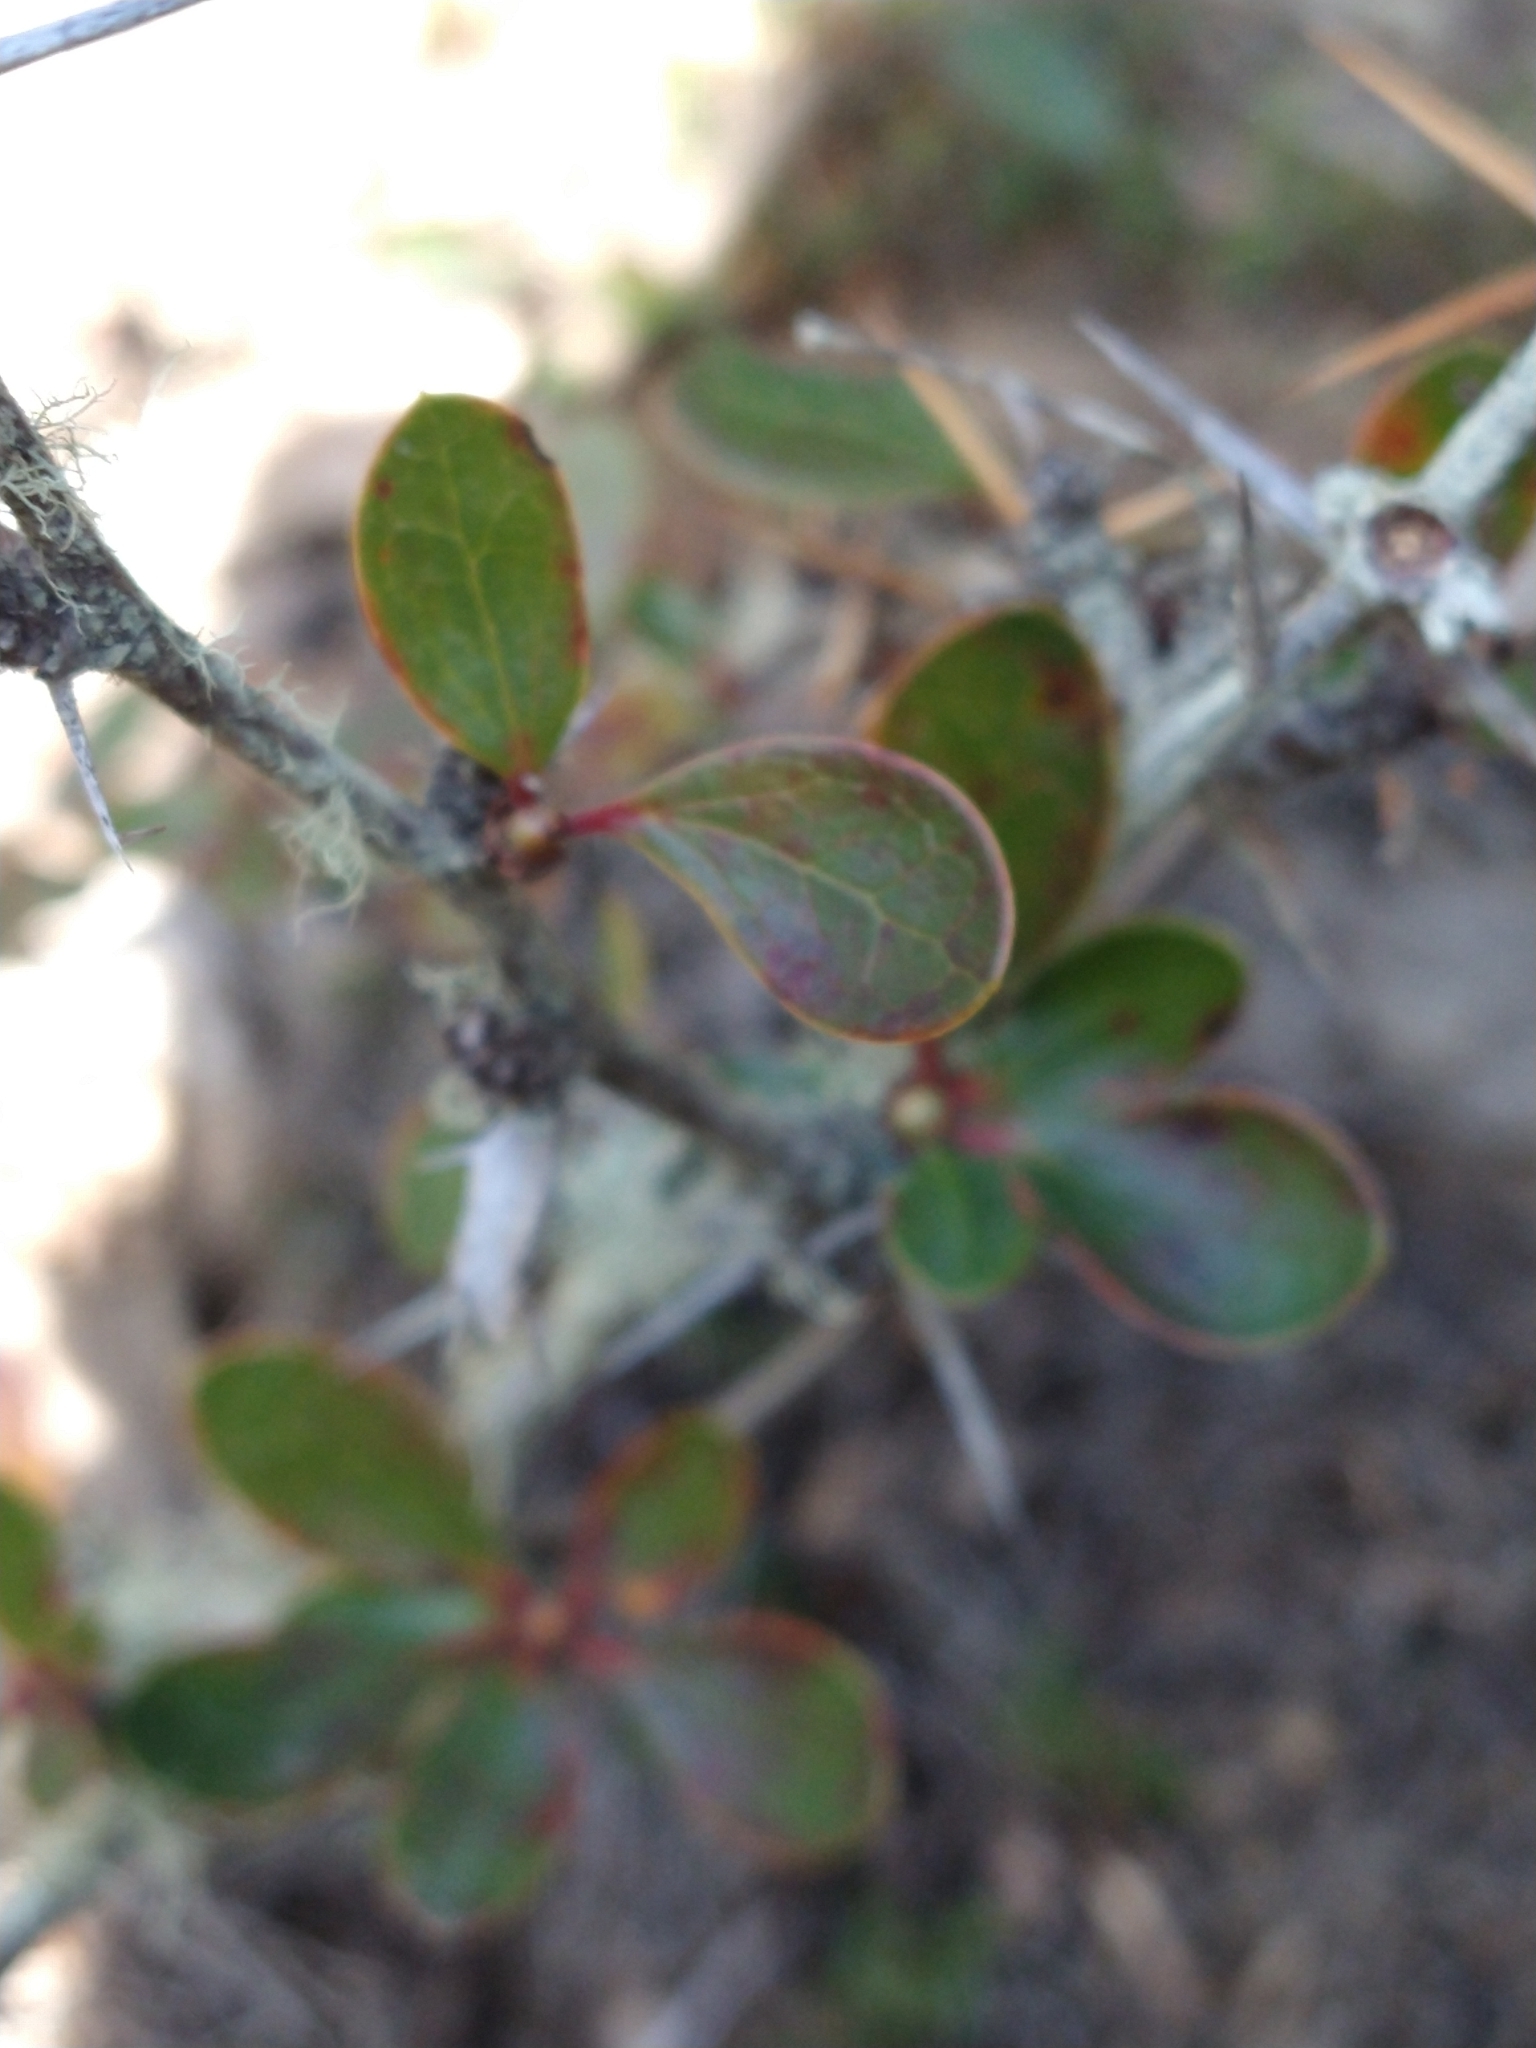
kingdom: Plantae
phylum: Tracheophyta
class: Magnoliopsida
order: Ranunculales
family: Berberidaceae
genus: Berberis
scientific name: Berberis microphylla
